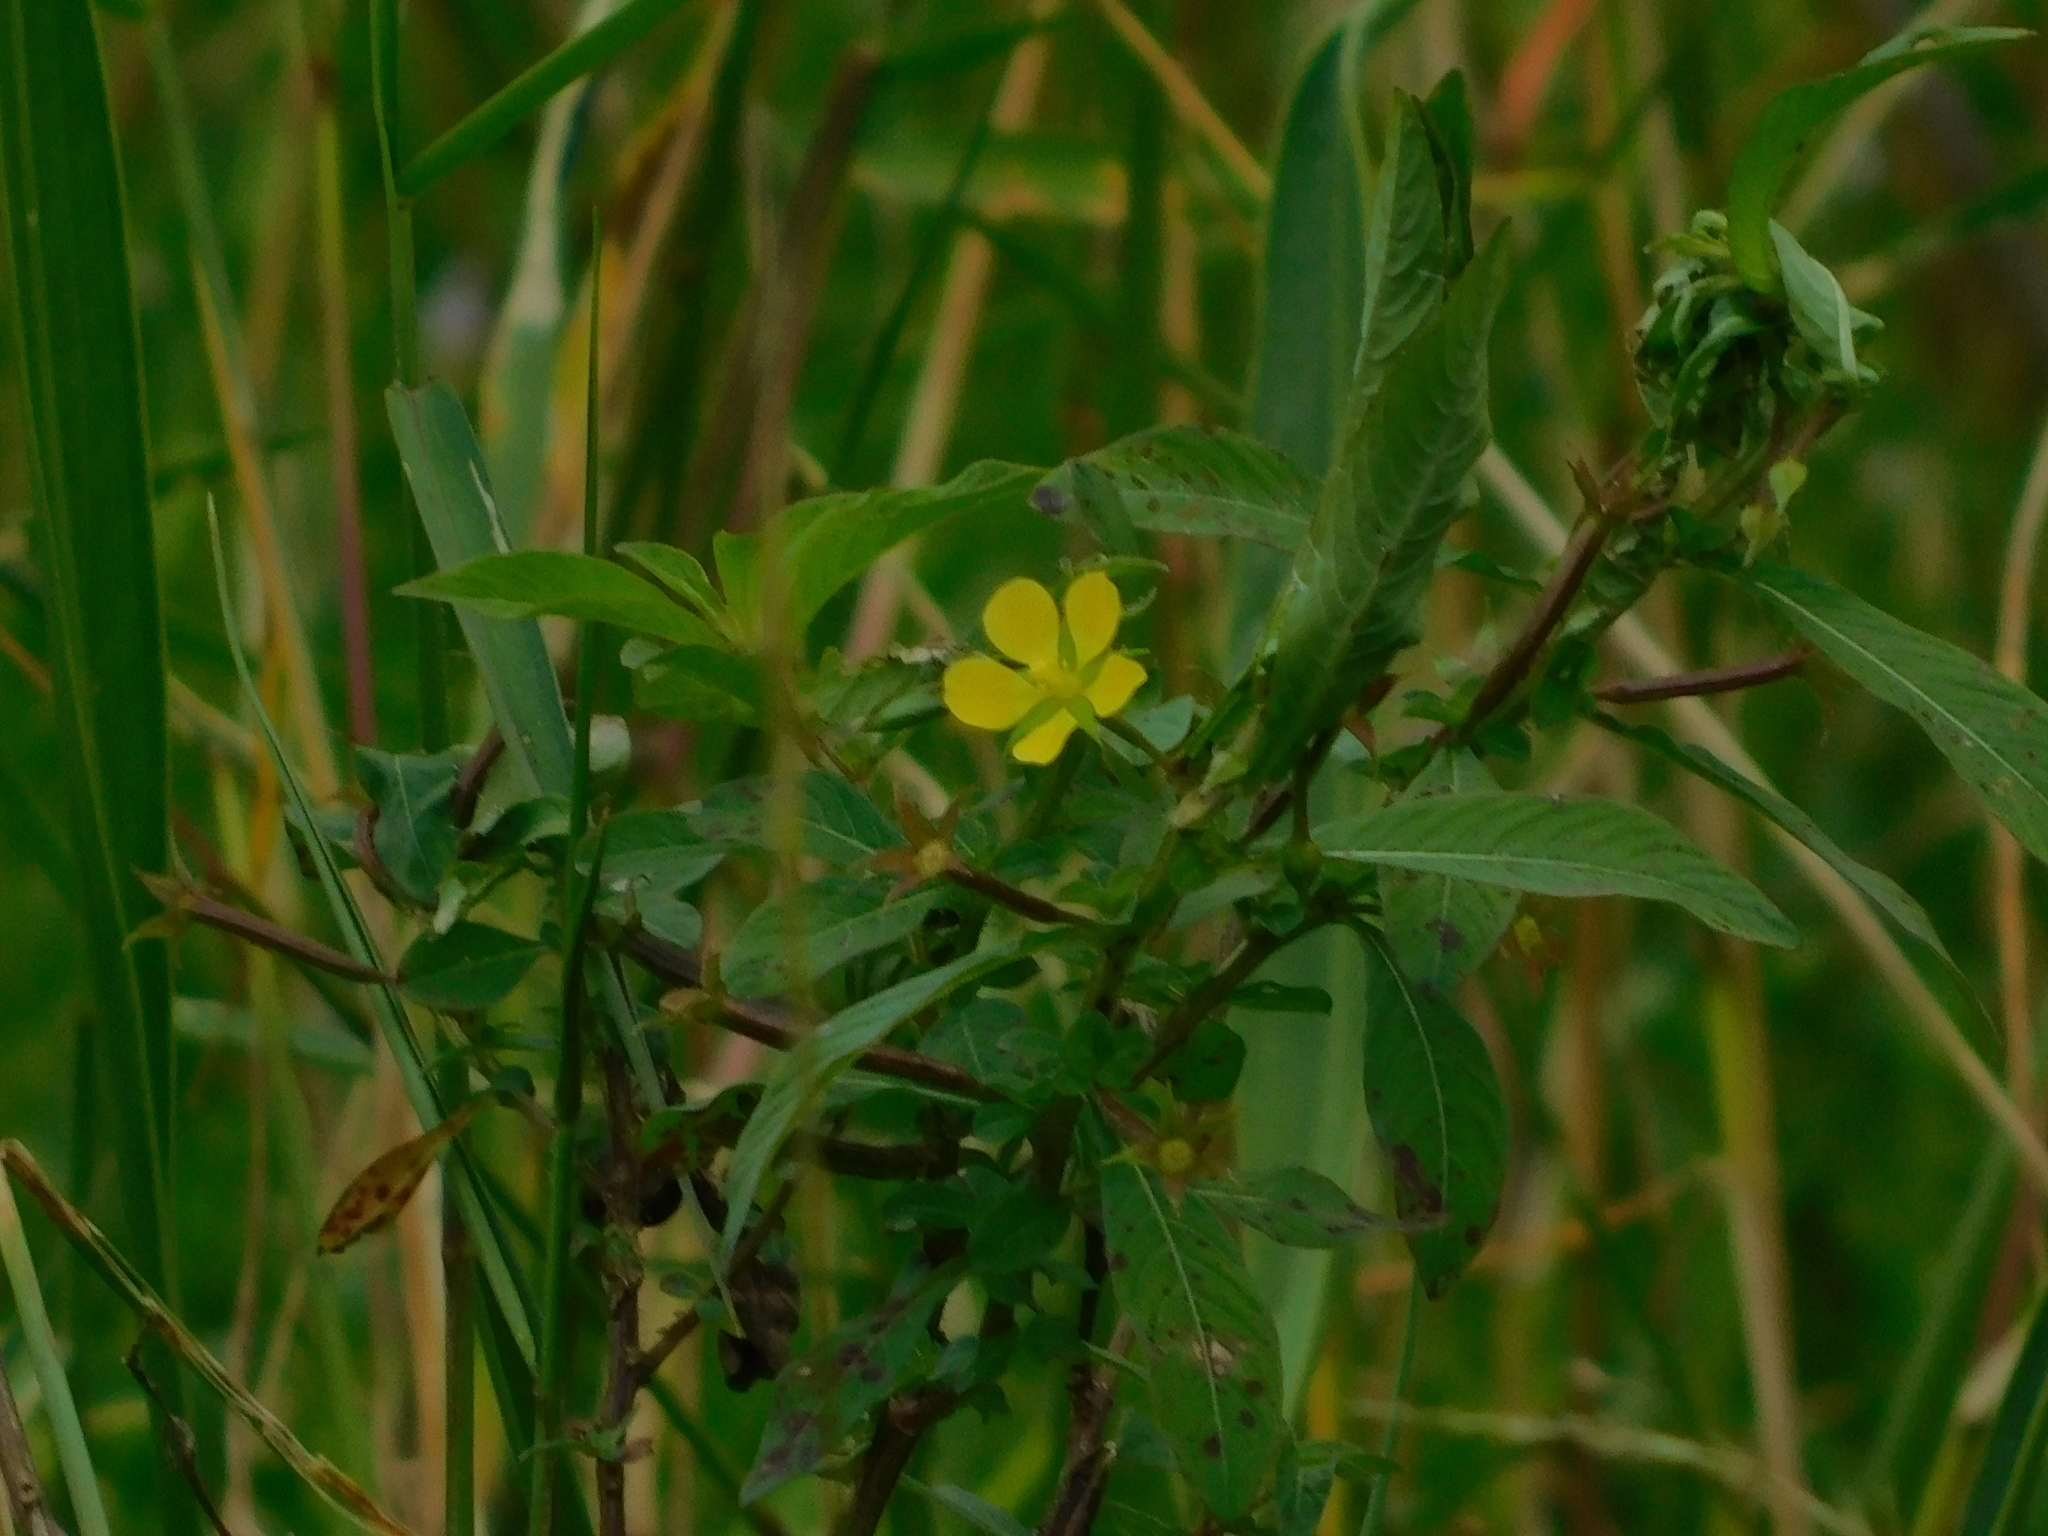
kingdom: Plantae
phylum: Tracheophyta
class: Magnoliopsida
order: Myrtales
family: Onagraceae
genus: Ludwigia
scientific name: Ludwigia leptocarpa
